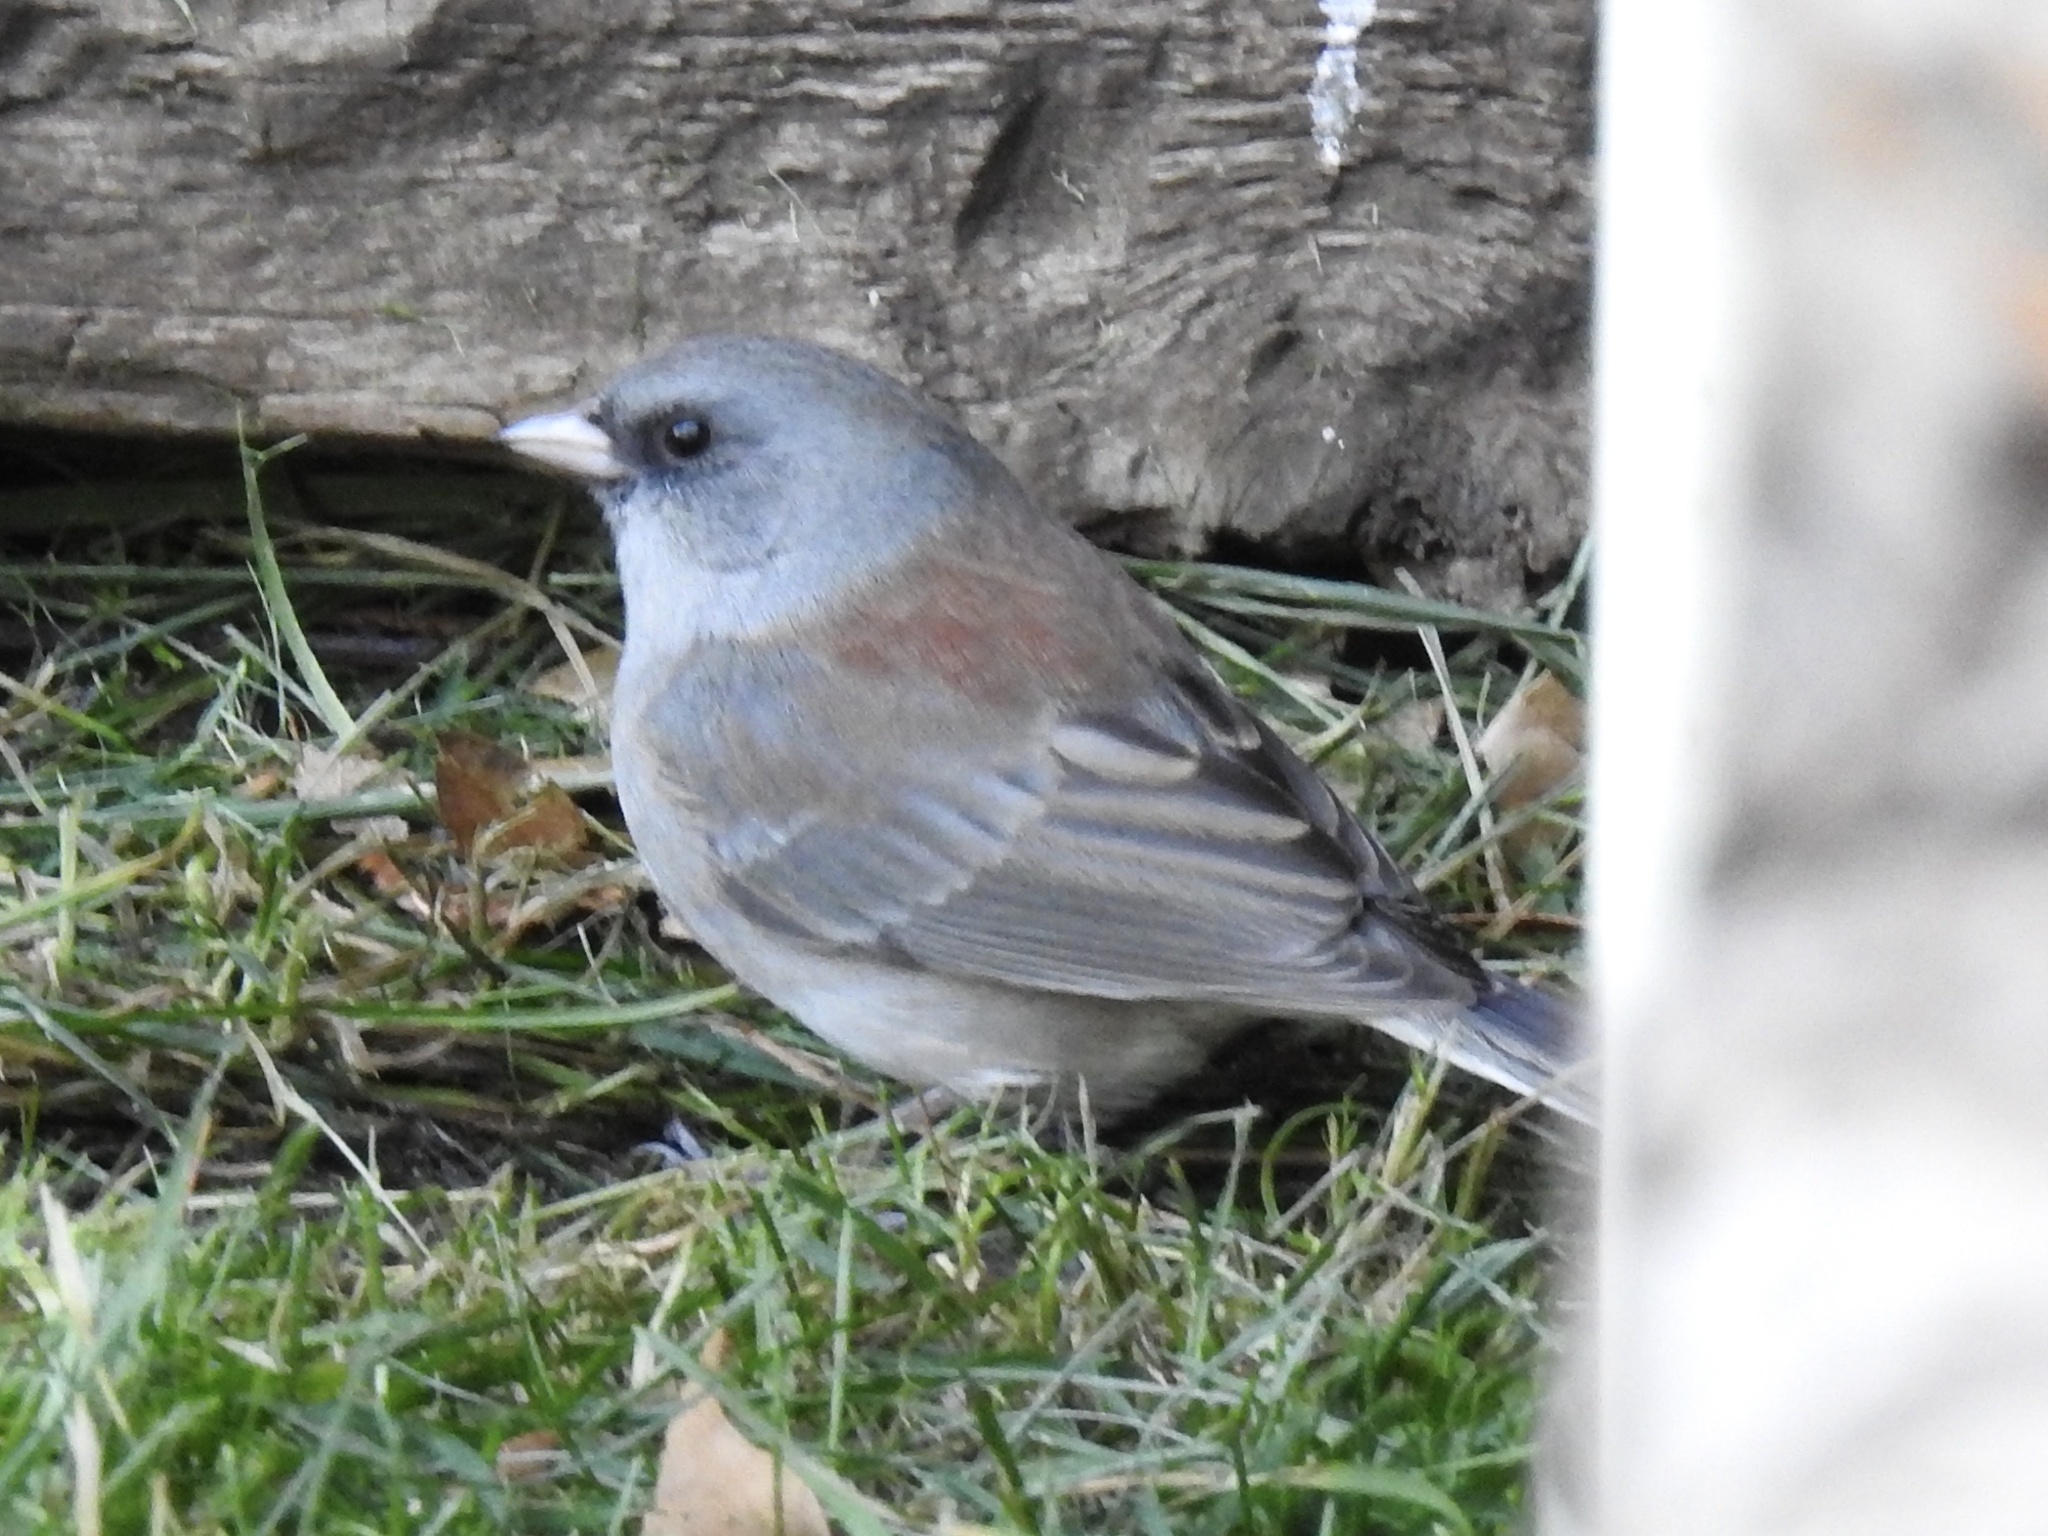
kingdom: Animalia
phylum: Chordata
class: Aves
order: Passeriformes
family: Passerellidae
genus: Junco
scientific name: Junco hyemalis
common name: Dark-eyed junco
